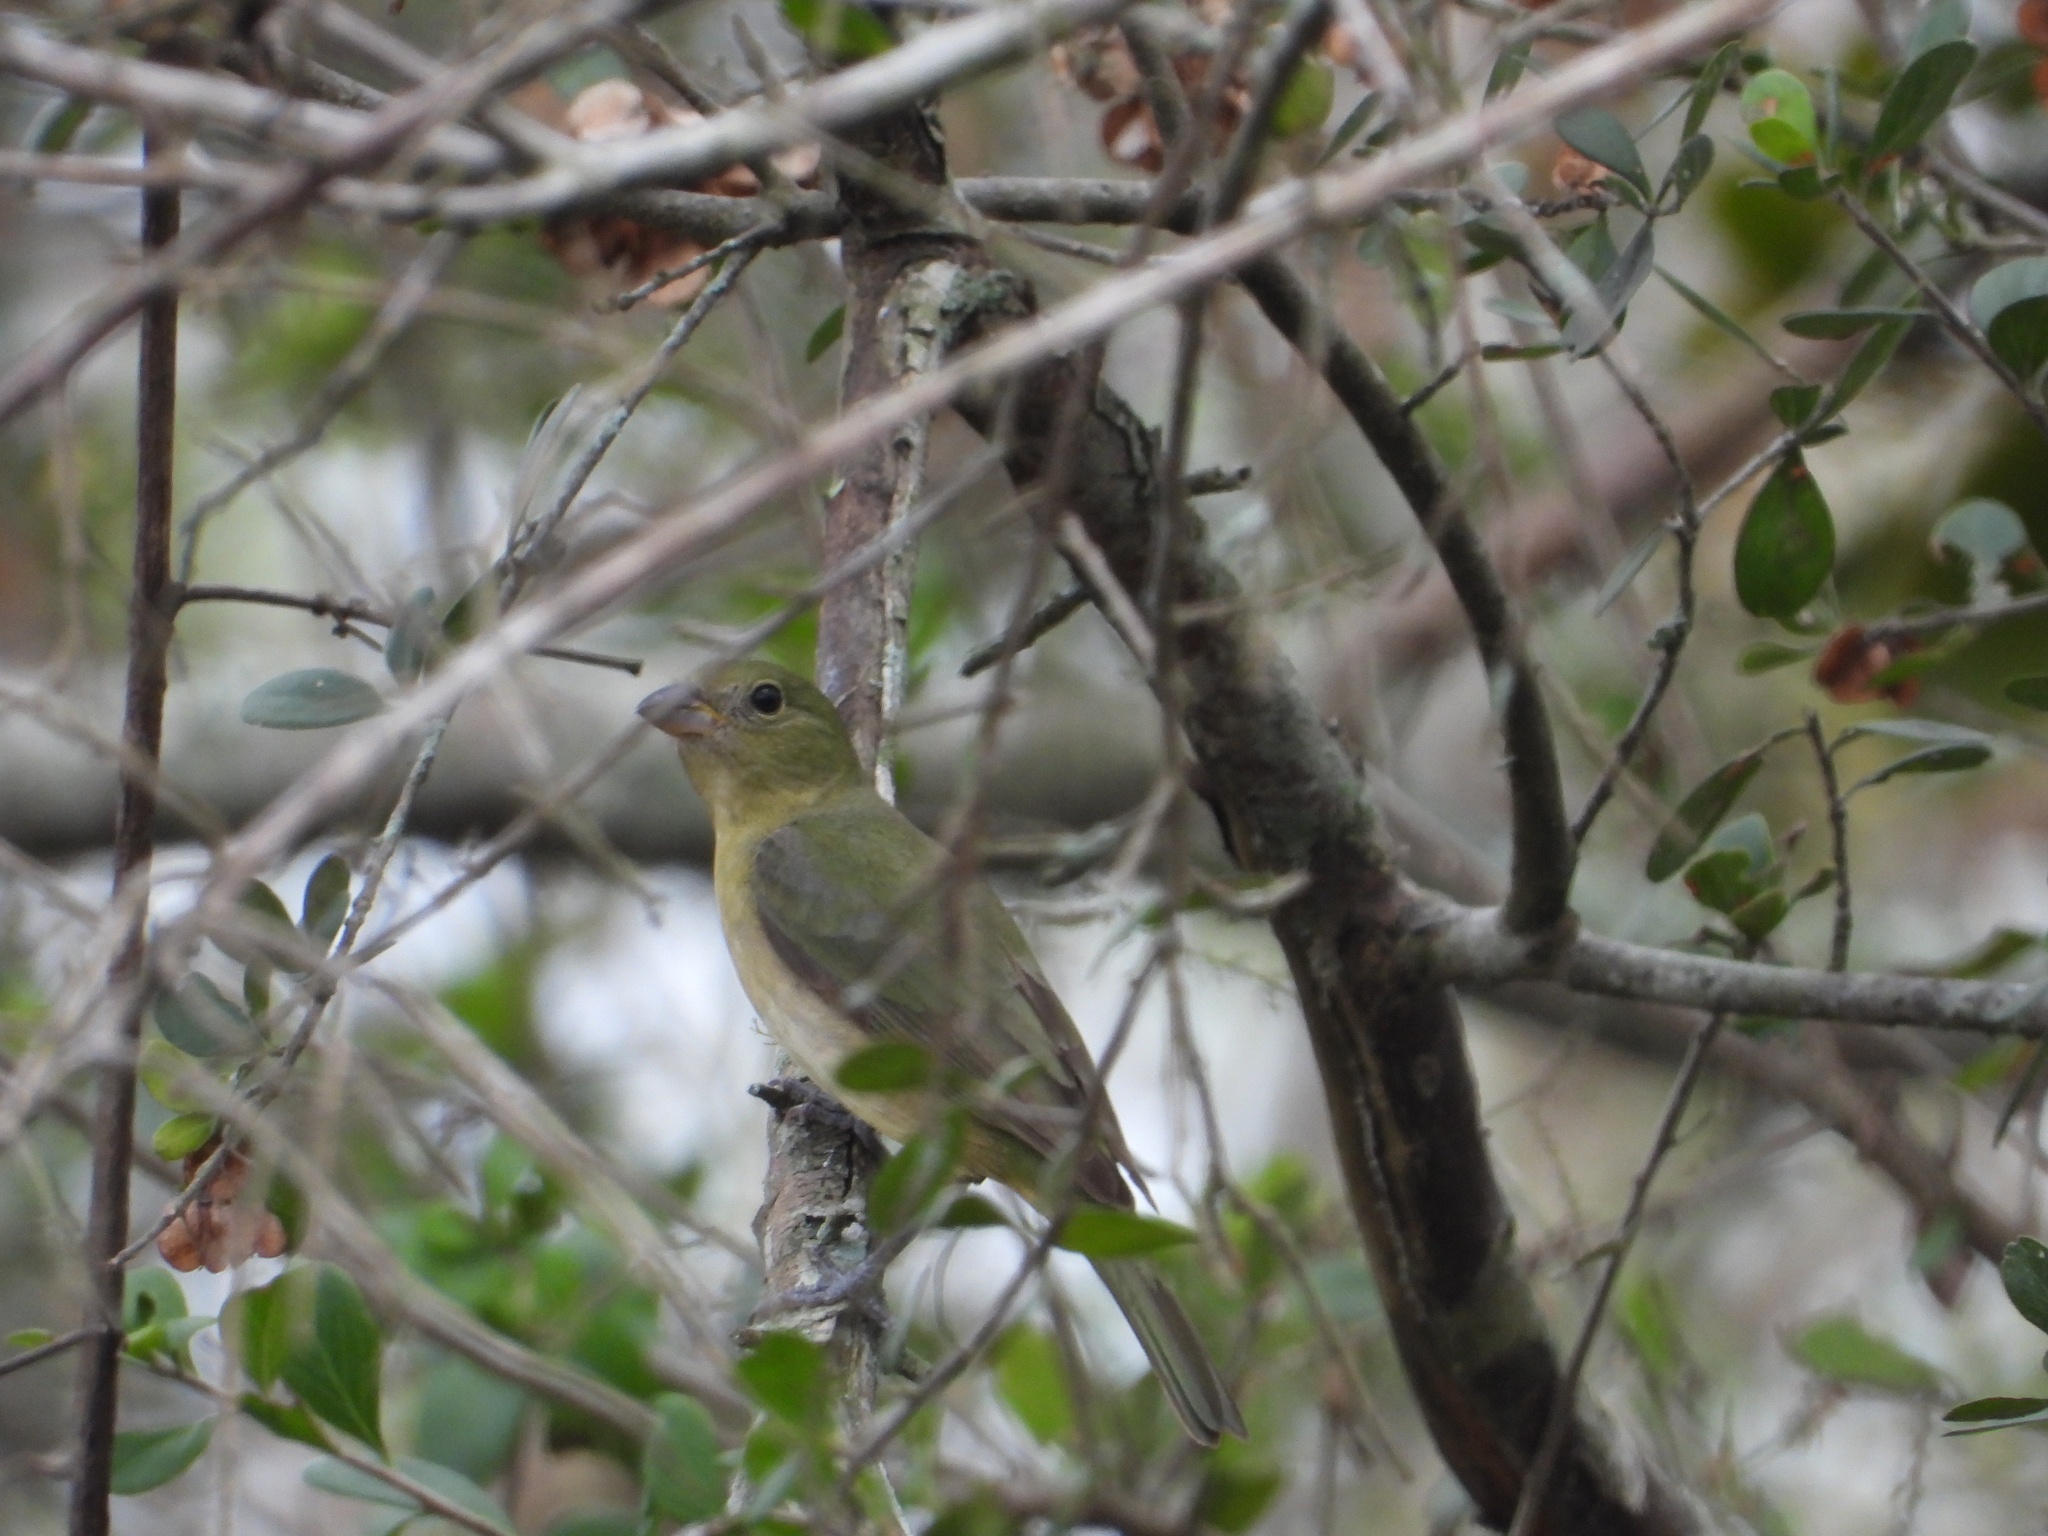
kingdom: Animalia
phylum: Chordata
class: Aves
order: Passeriformes
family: Cardinalidae
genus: Passerina
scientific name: Passerina ciris
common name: Painted bunting
